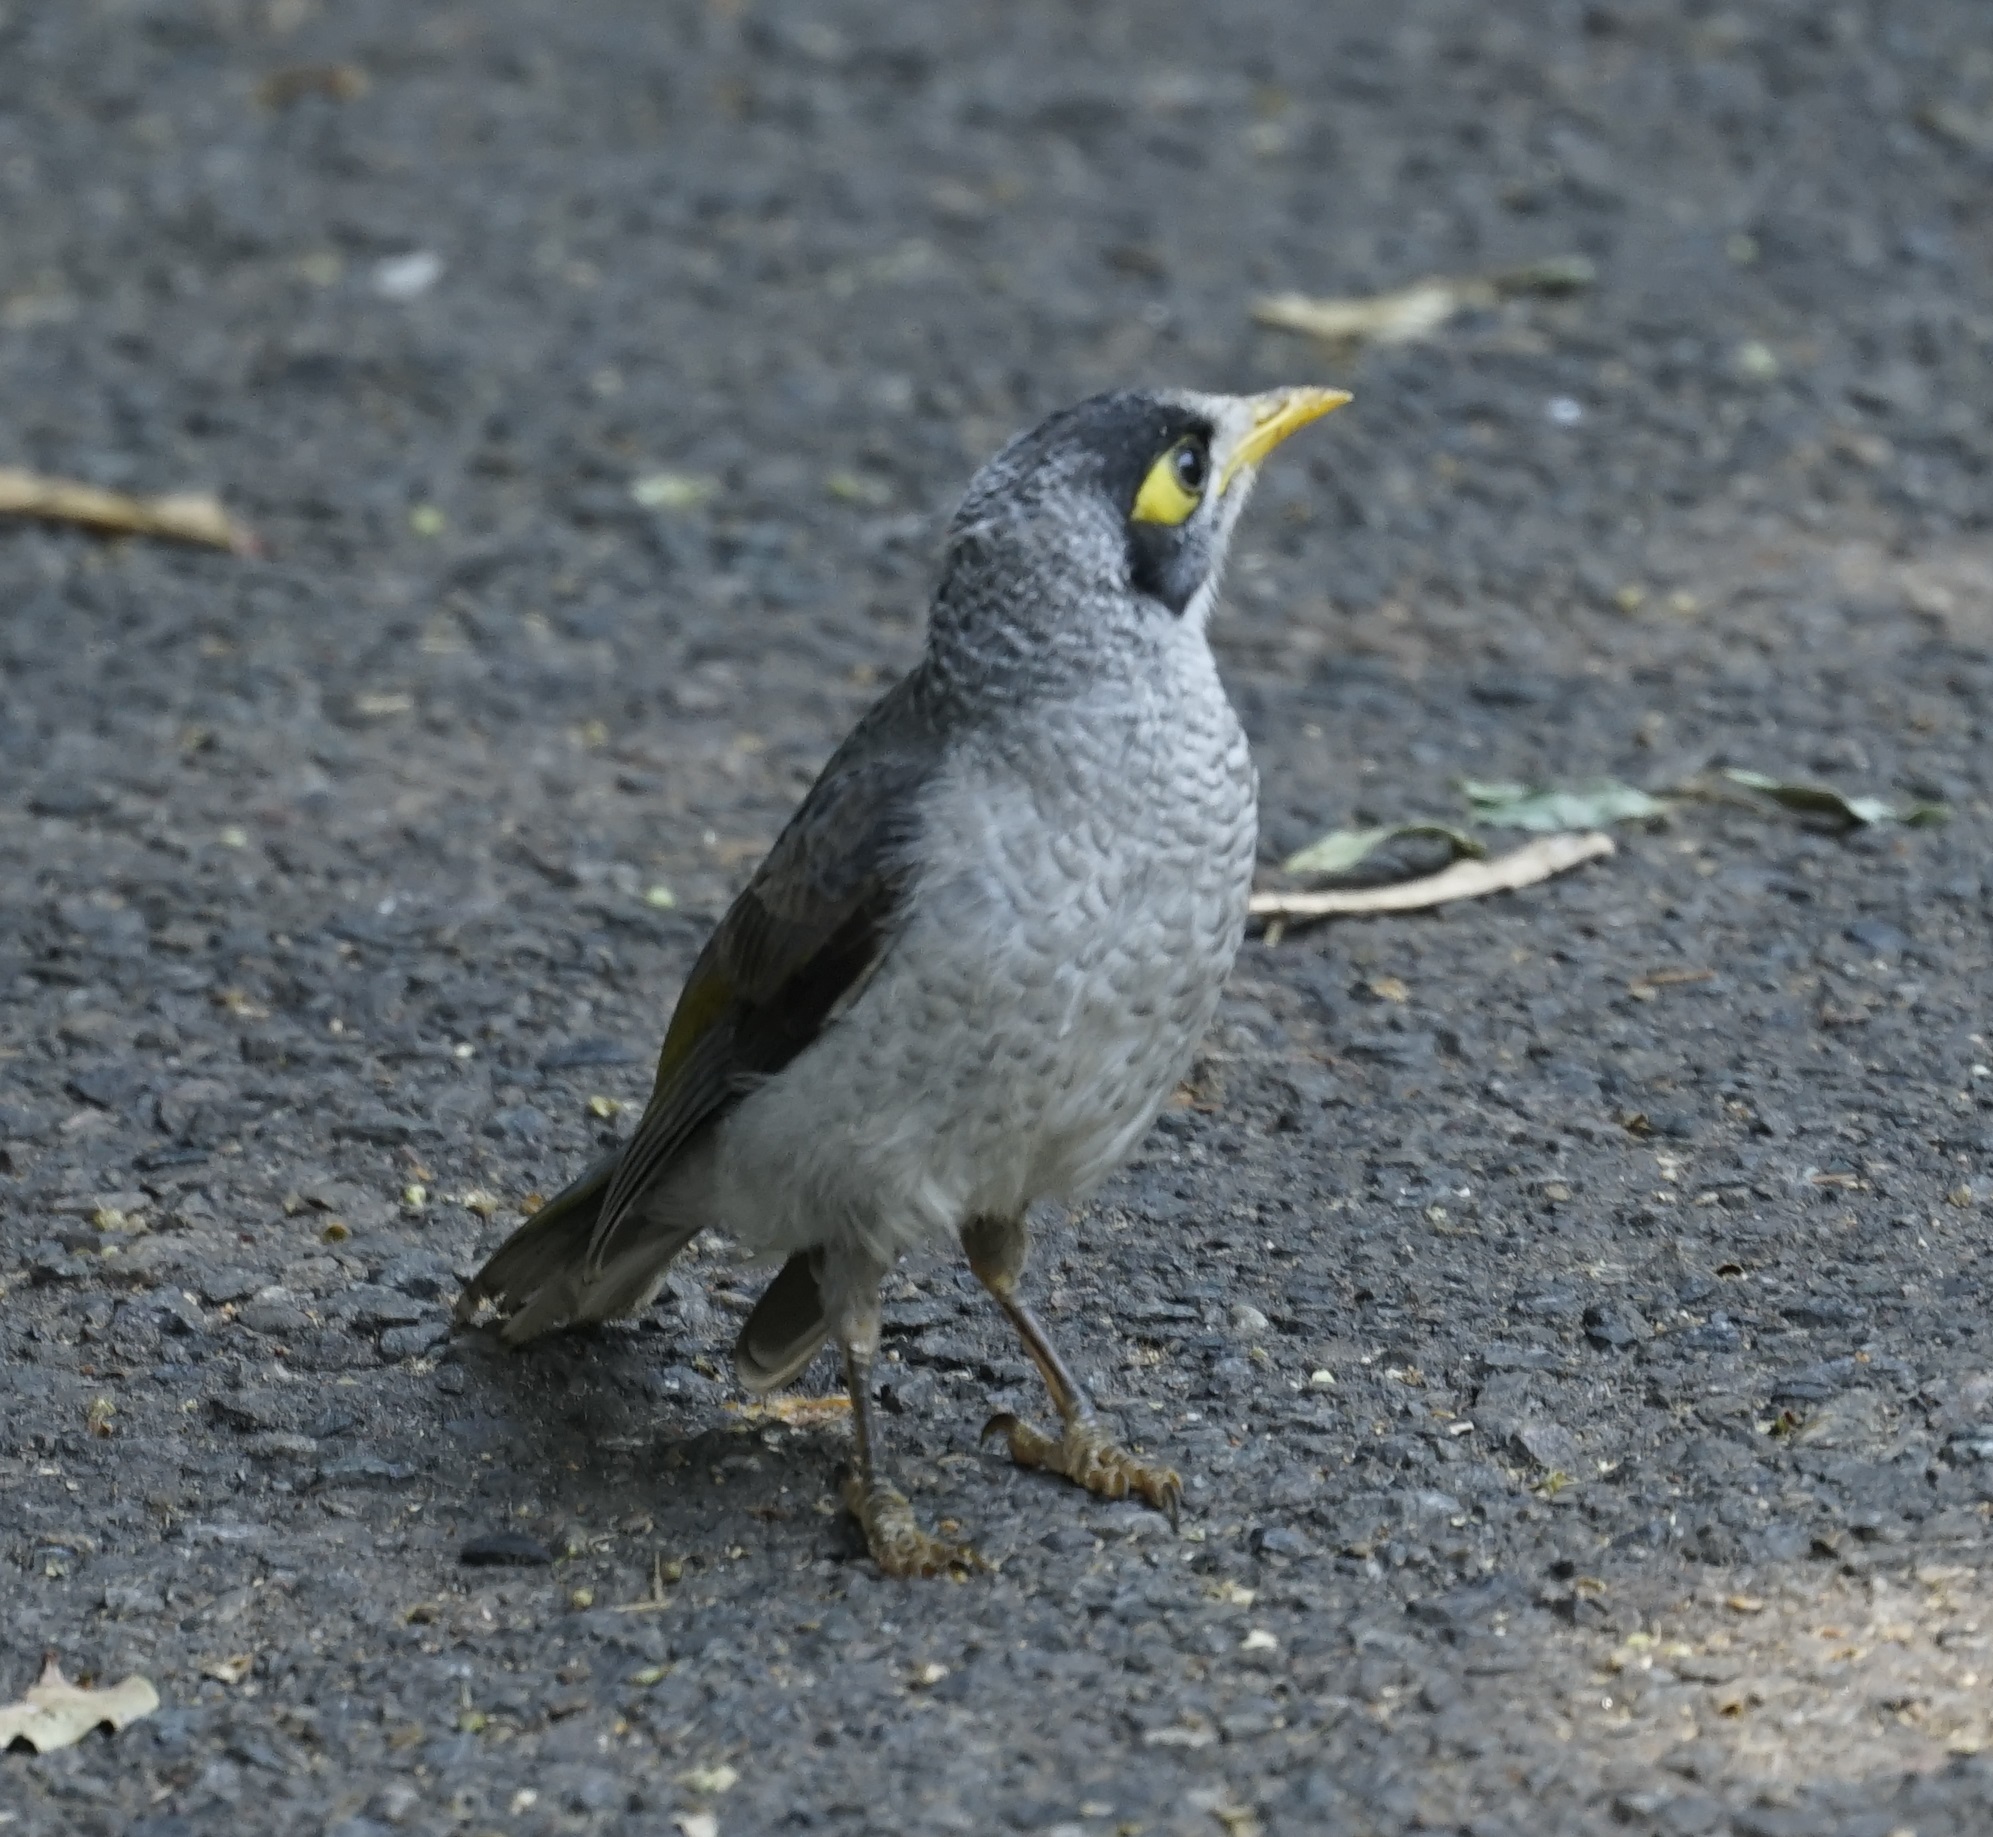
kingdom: Animalia
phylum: Chordata
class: Aves
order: Passeriformes
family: Meliphagidae
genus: Manorina
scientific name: Manorina melanocephala
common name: Noisy miner
